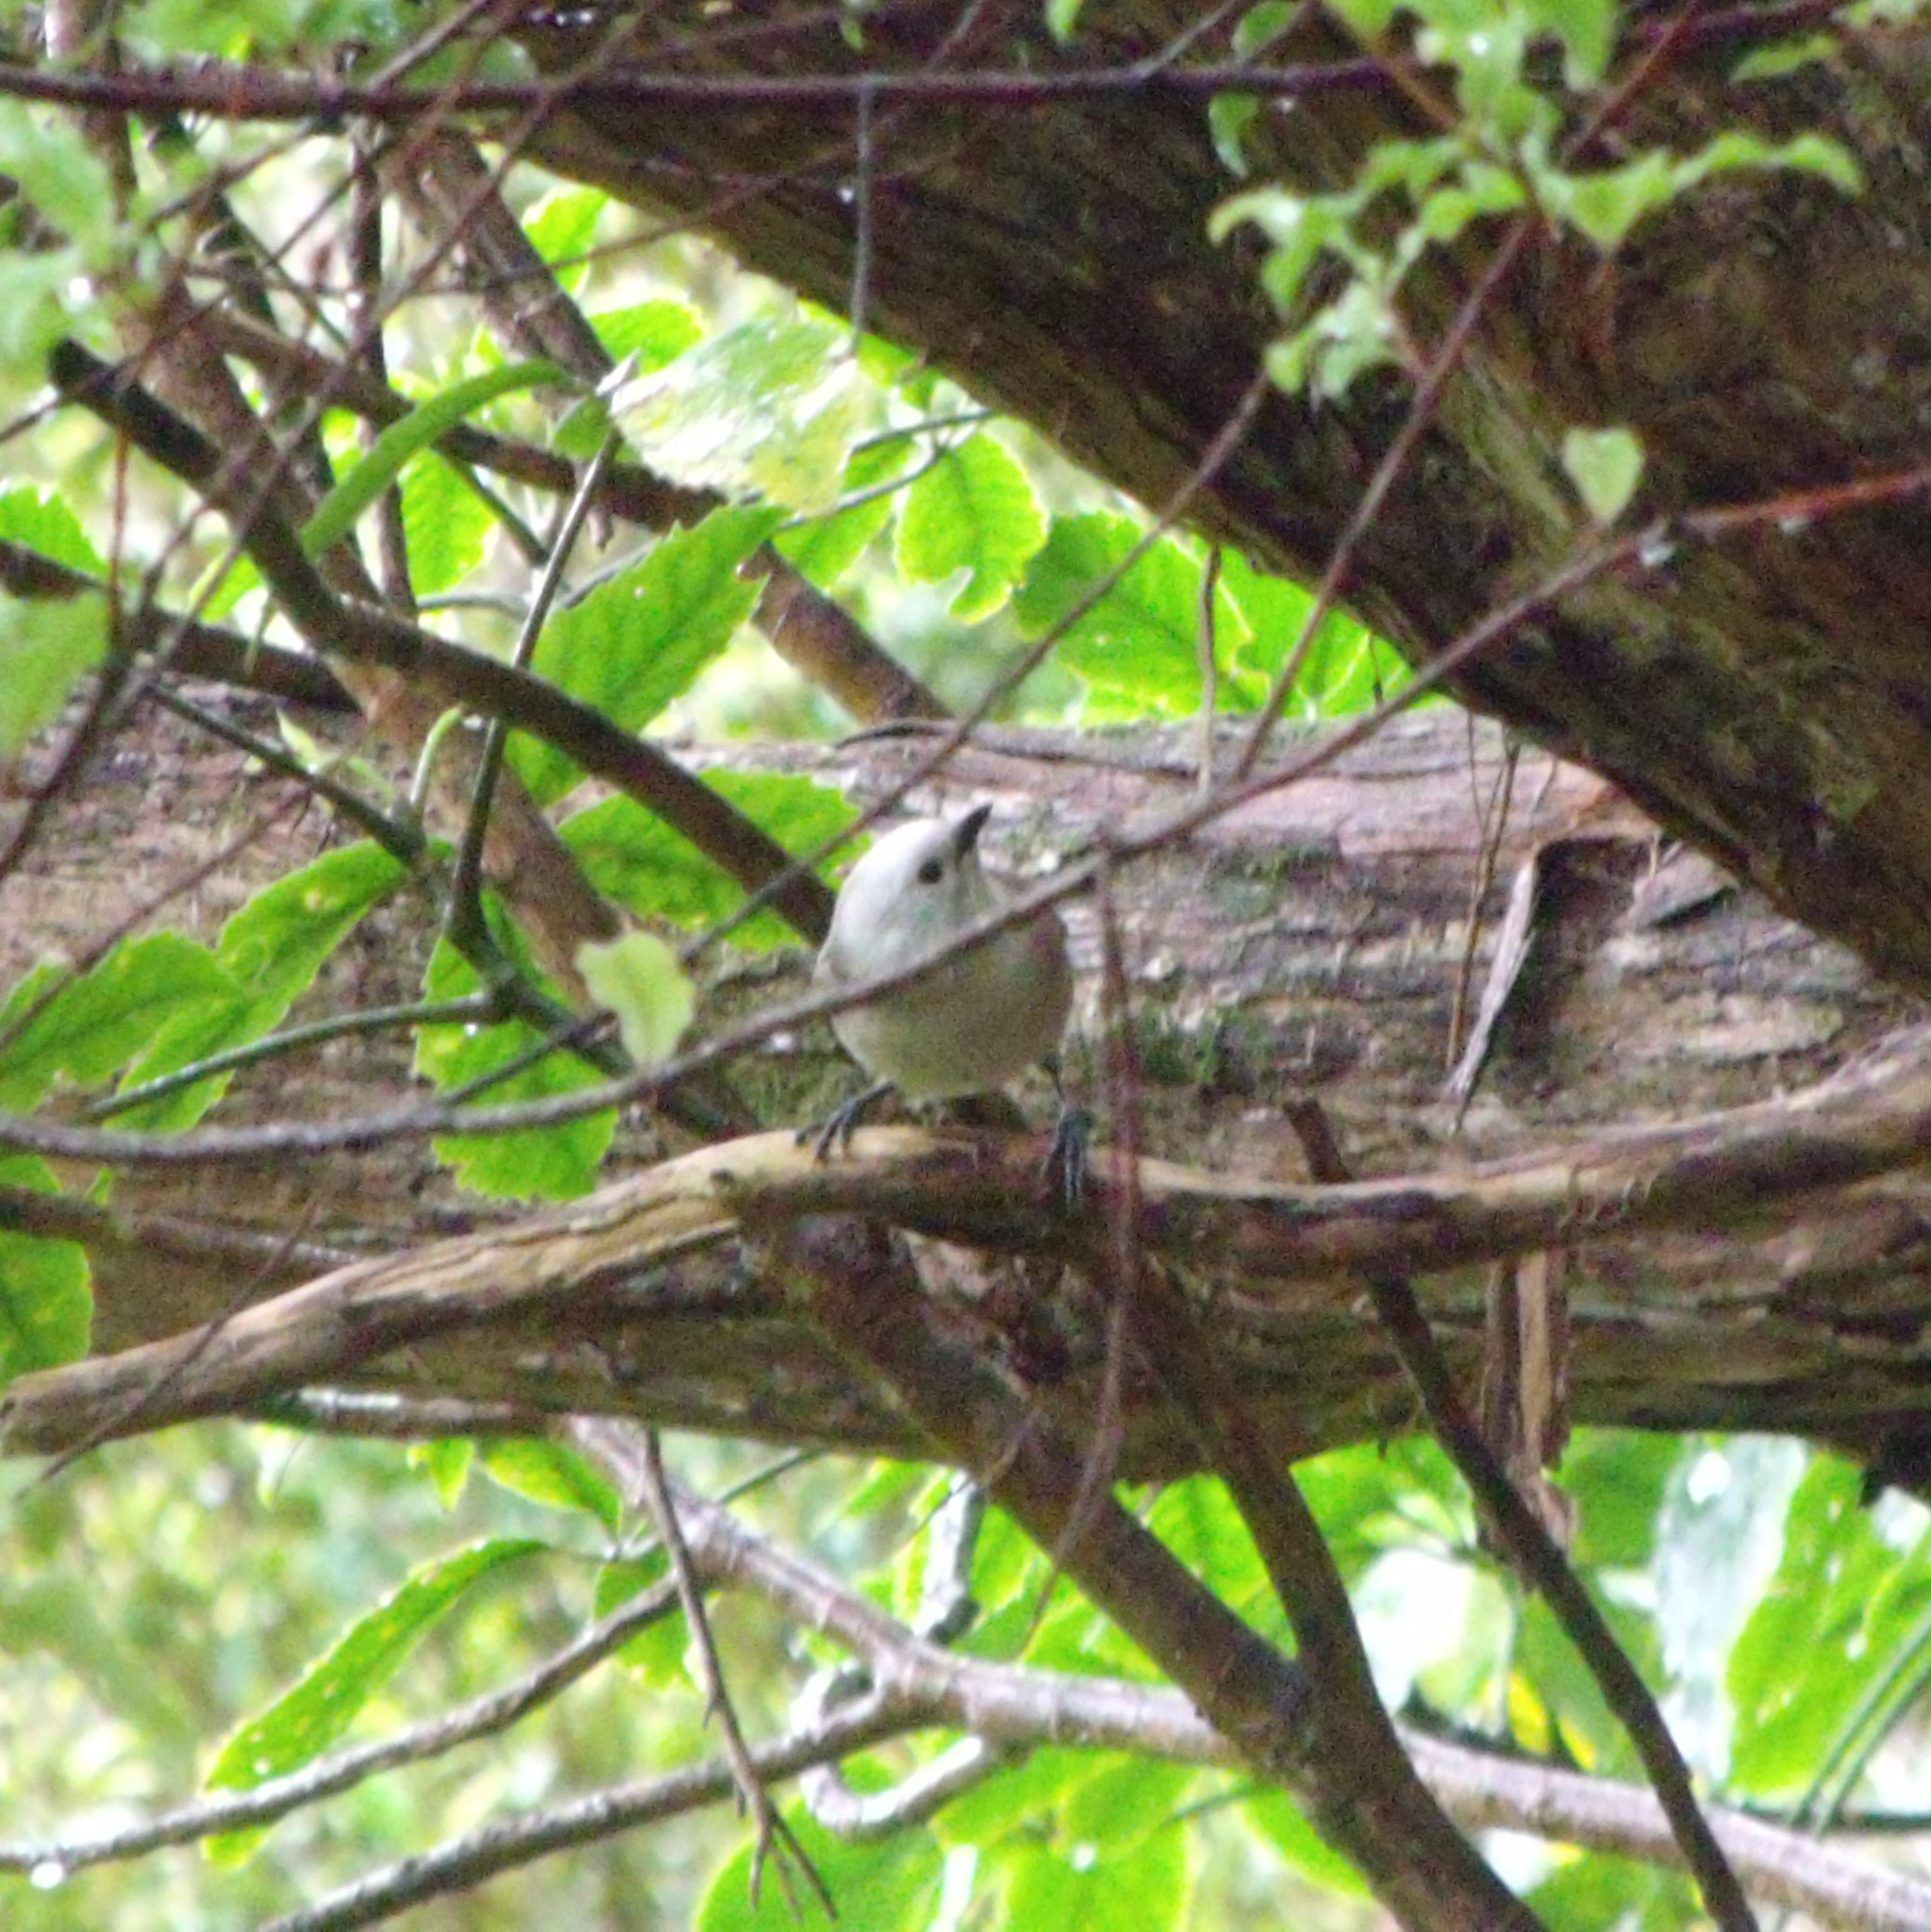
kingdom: Animalia
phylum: Chordata
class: Aves
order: Passeriformes
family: Acanthizidae
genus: Mohoua
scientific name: Mohoua albicilla
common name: Whitehead
